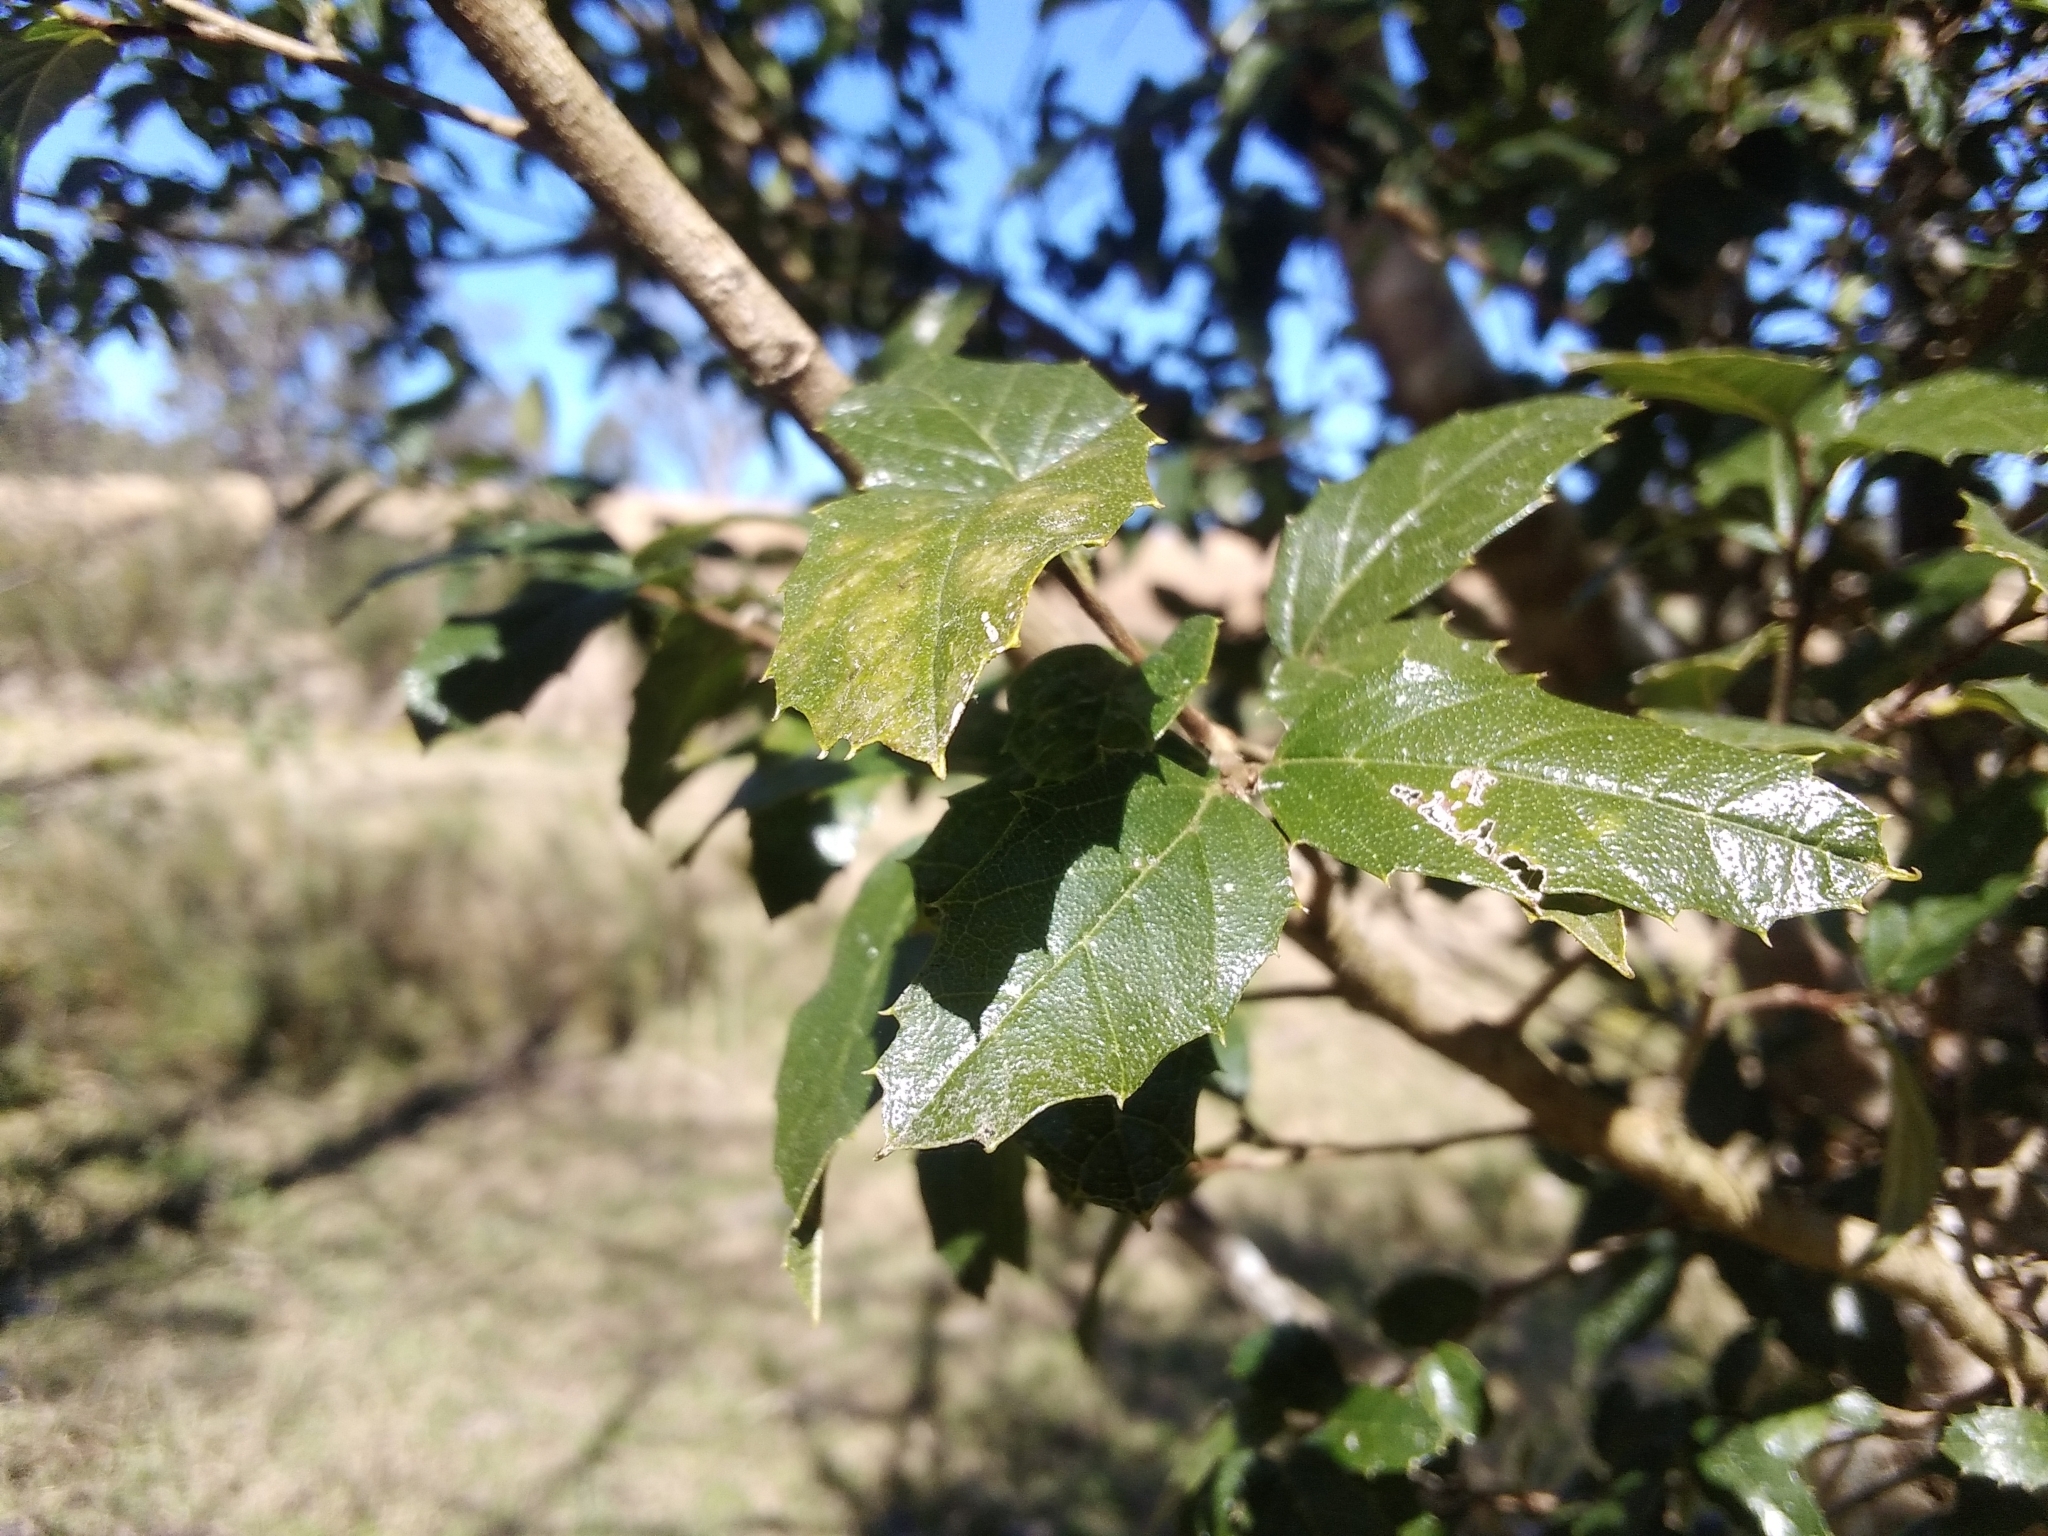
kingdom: Plantae
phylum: Tracheophyta
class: Magnoliopsida
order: Rosales
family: Cannabaceae
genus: Aphananthe
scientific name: Aphananthe philippinensis
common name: Wild holly
